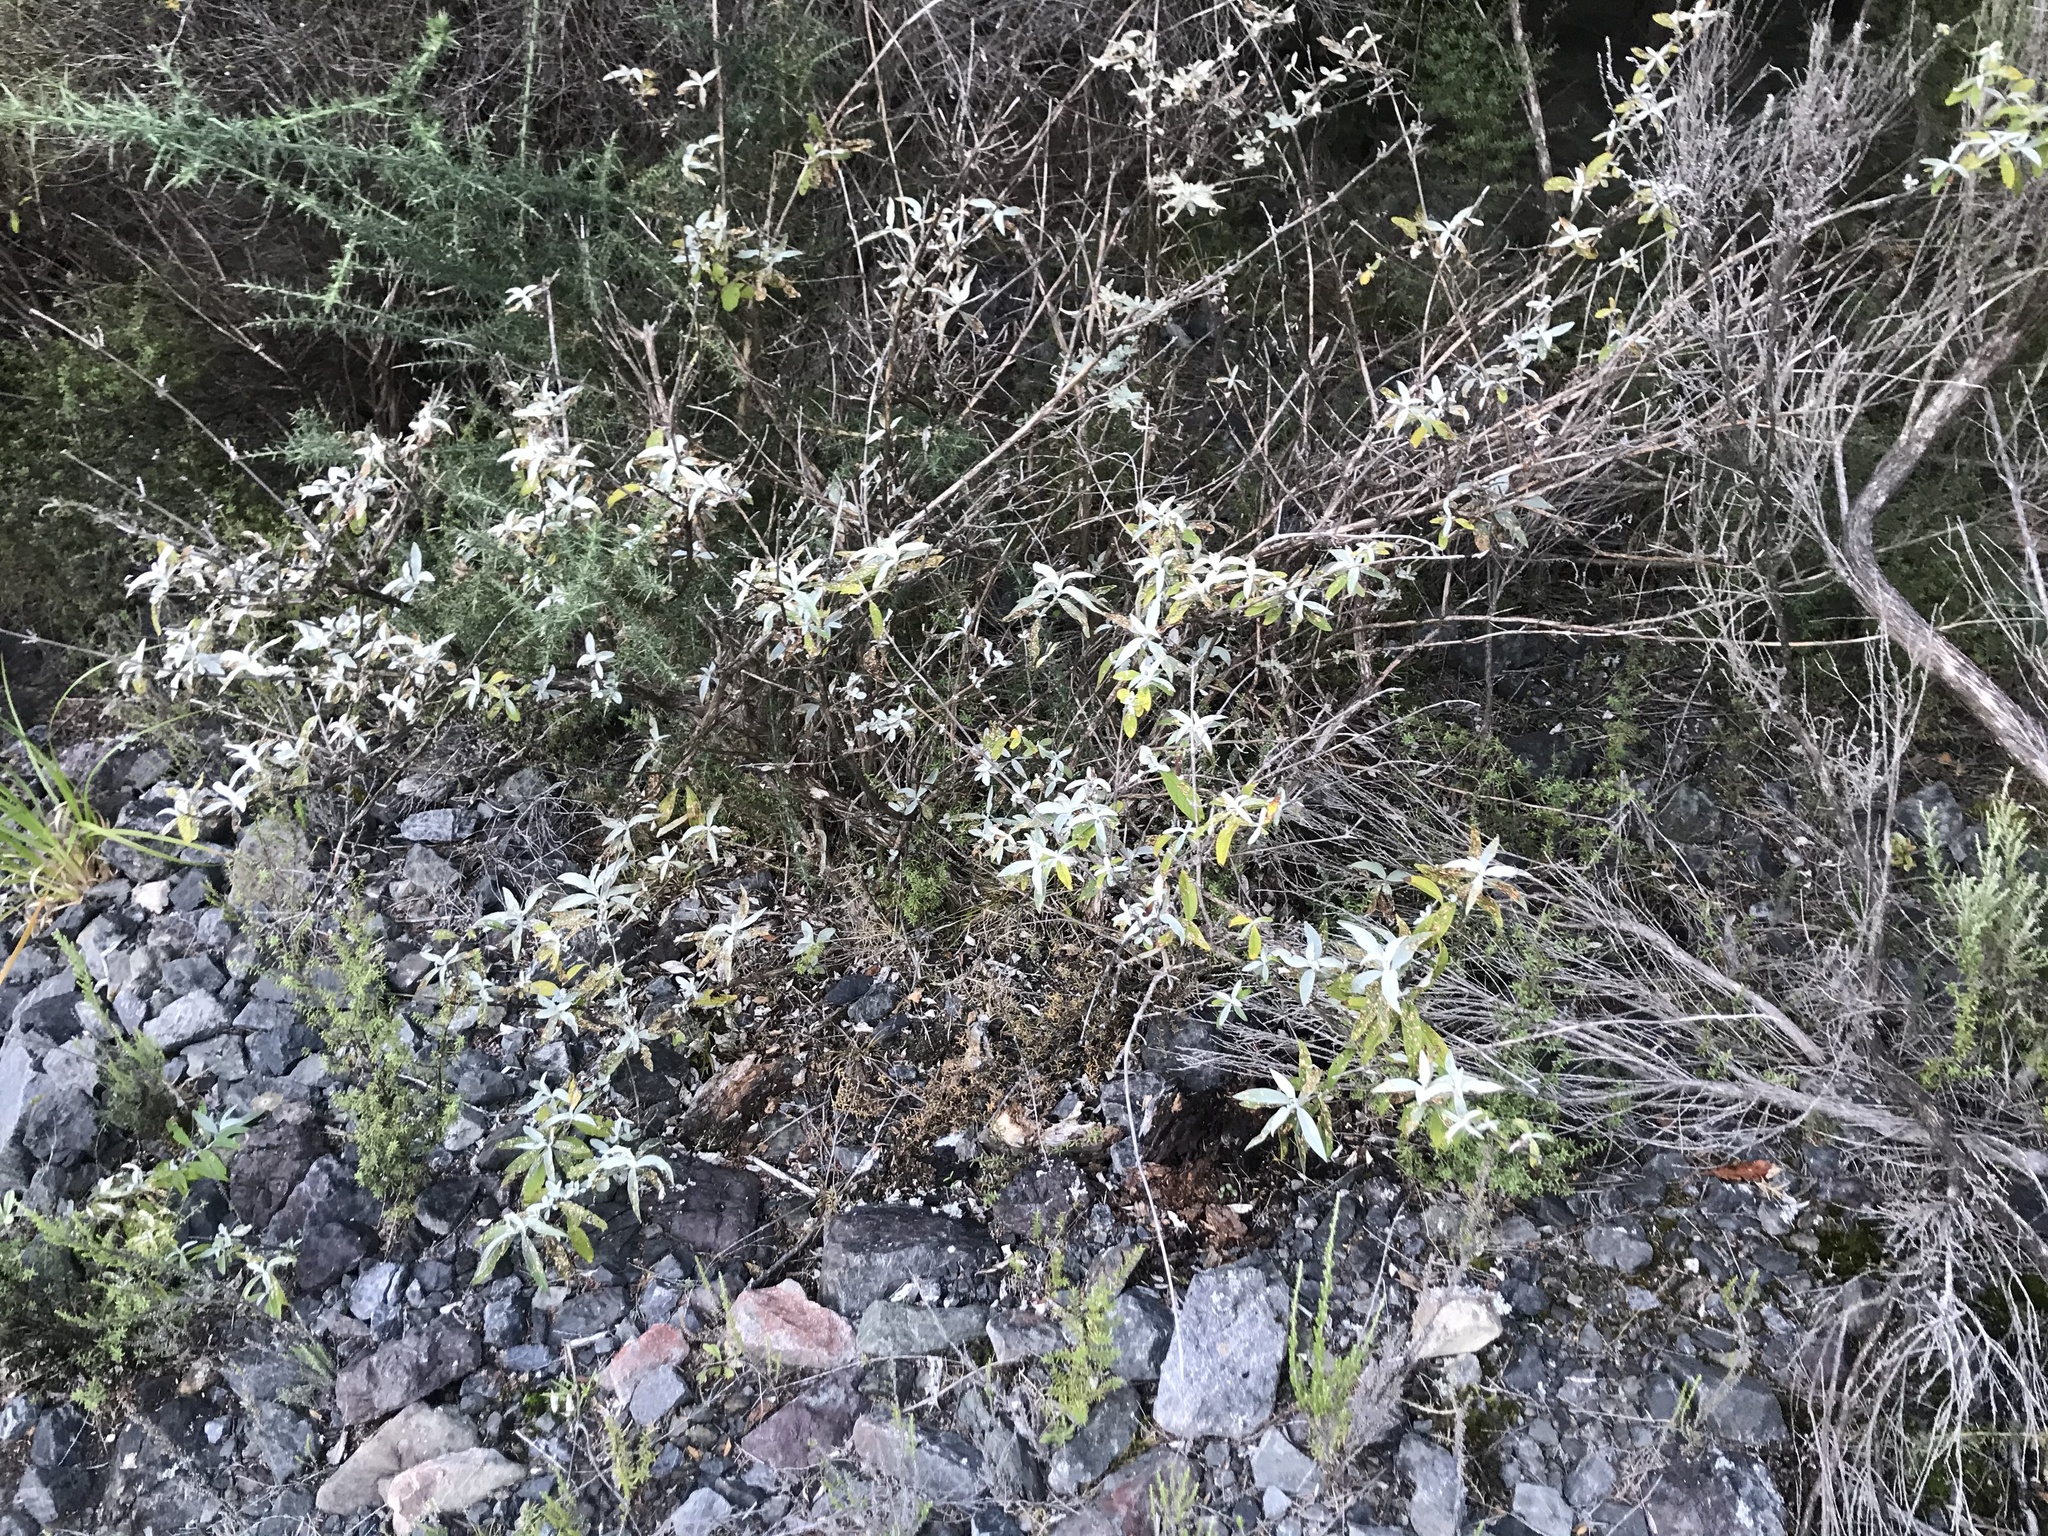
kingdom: Plantae
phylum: Tracheophyta
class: Magnoliopsida
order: Lamiales
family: Scrophulariaceae
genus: Buddleja
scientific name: Buddleja davidii
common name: Butterfly-bush
